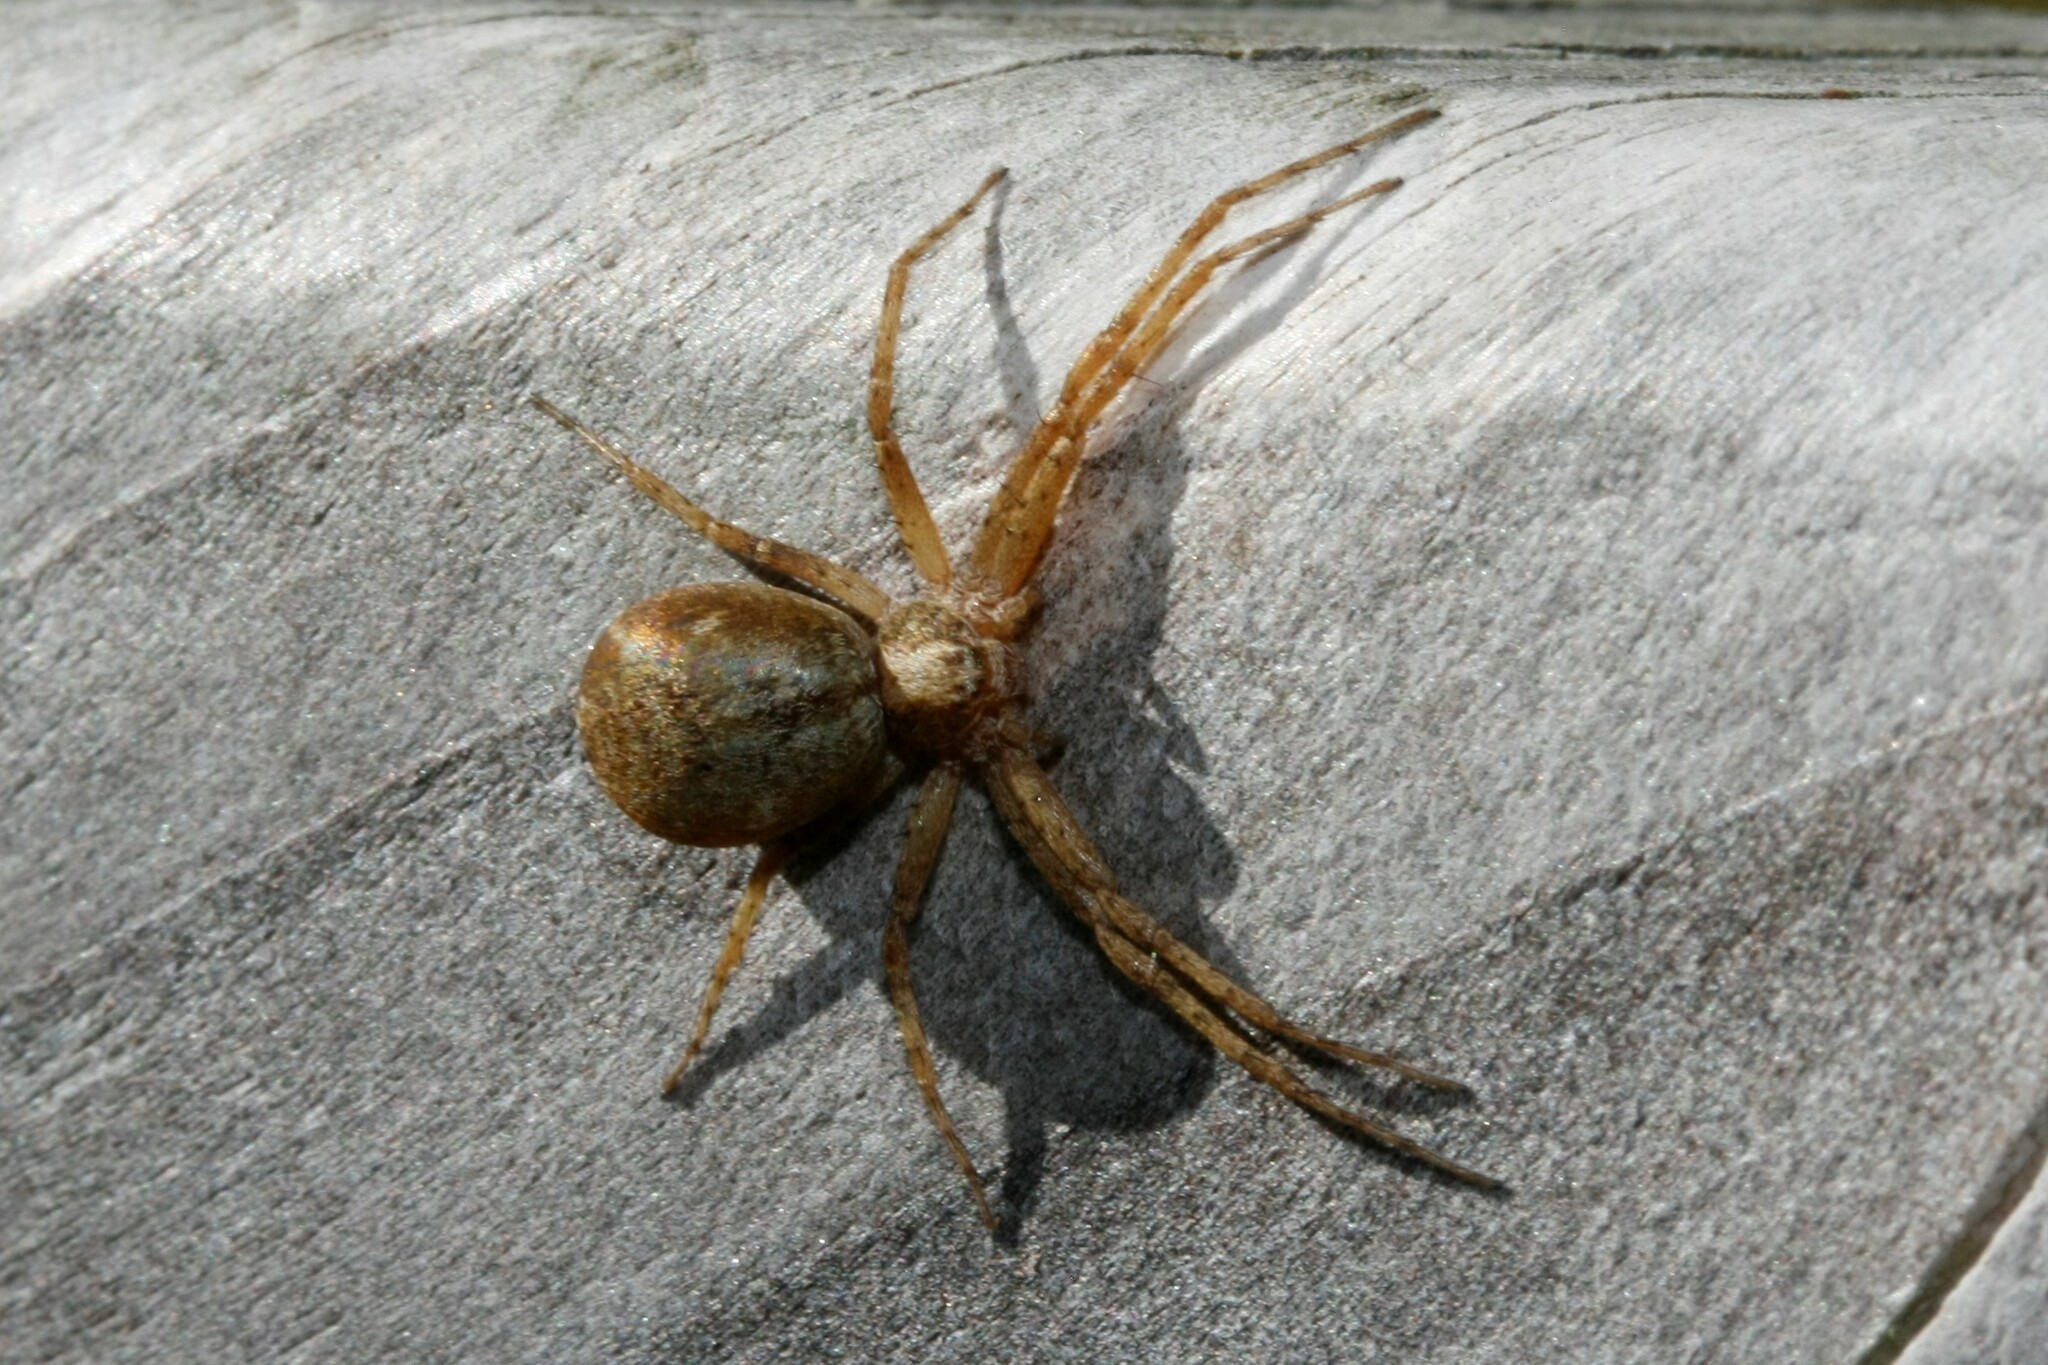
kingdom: Animalia
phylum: Arthropoda
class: Arachnida
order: Araneae
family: Philodromidae
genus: Philodromus
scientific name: Philodromus
